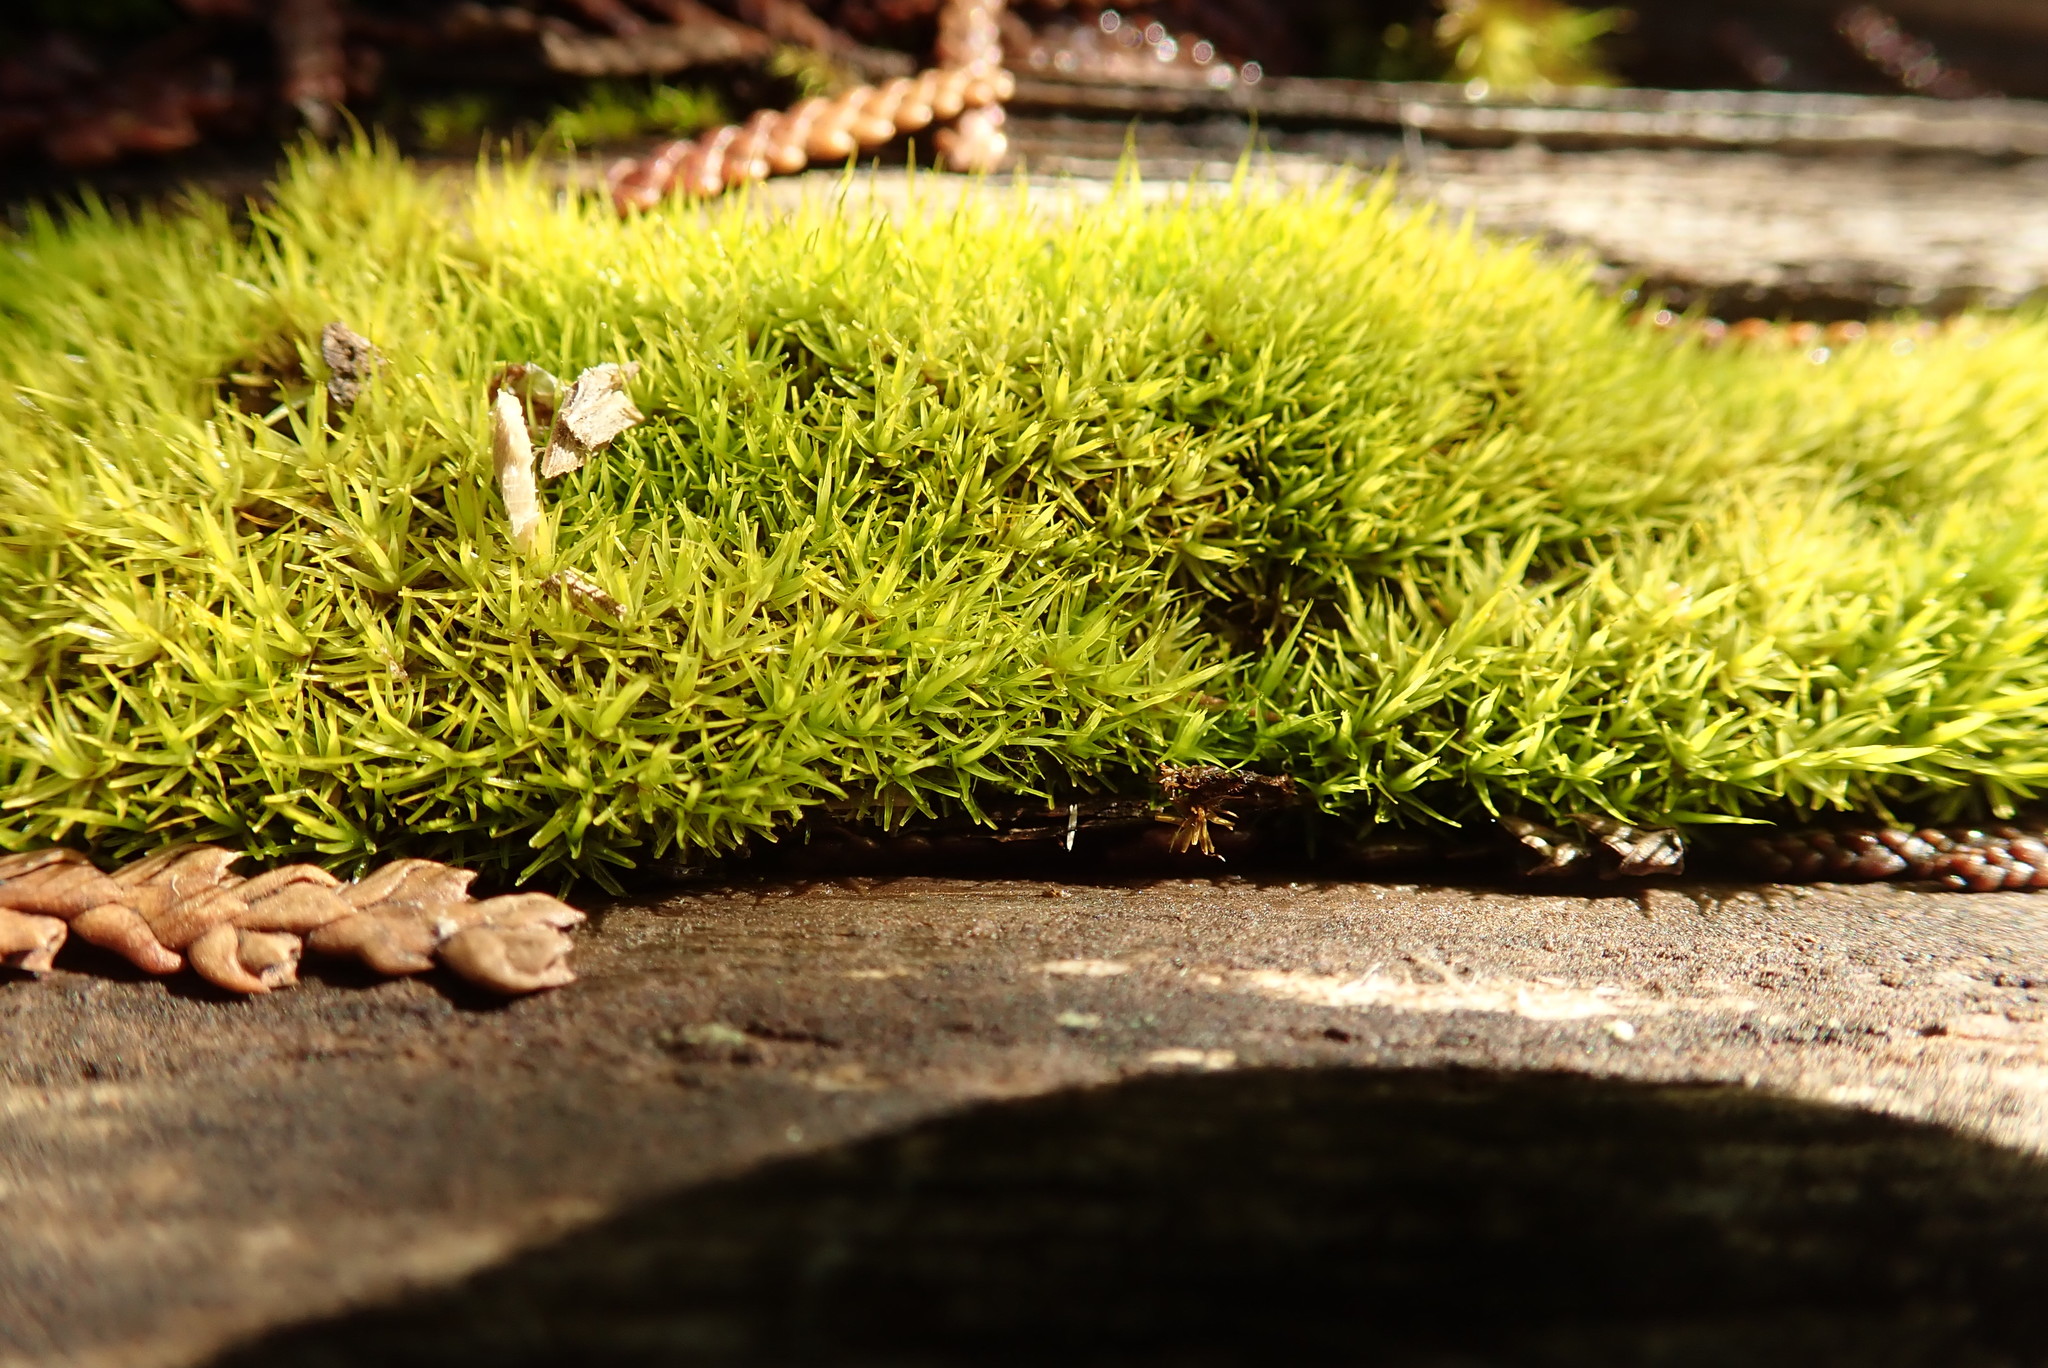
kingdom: Plantae
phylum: Bryophyta
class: Bryopsida
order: Dicranales
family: Rhabdoweisiaceae
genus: Dicranoweisia
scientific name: Dicranoweisia cirrata
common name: Common pincushion
